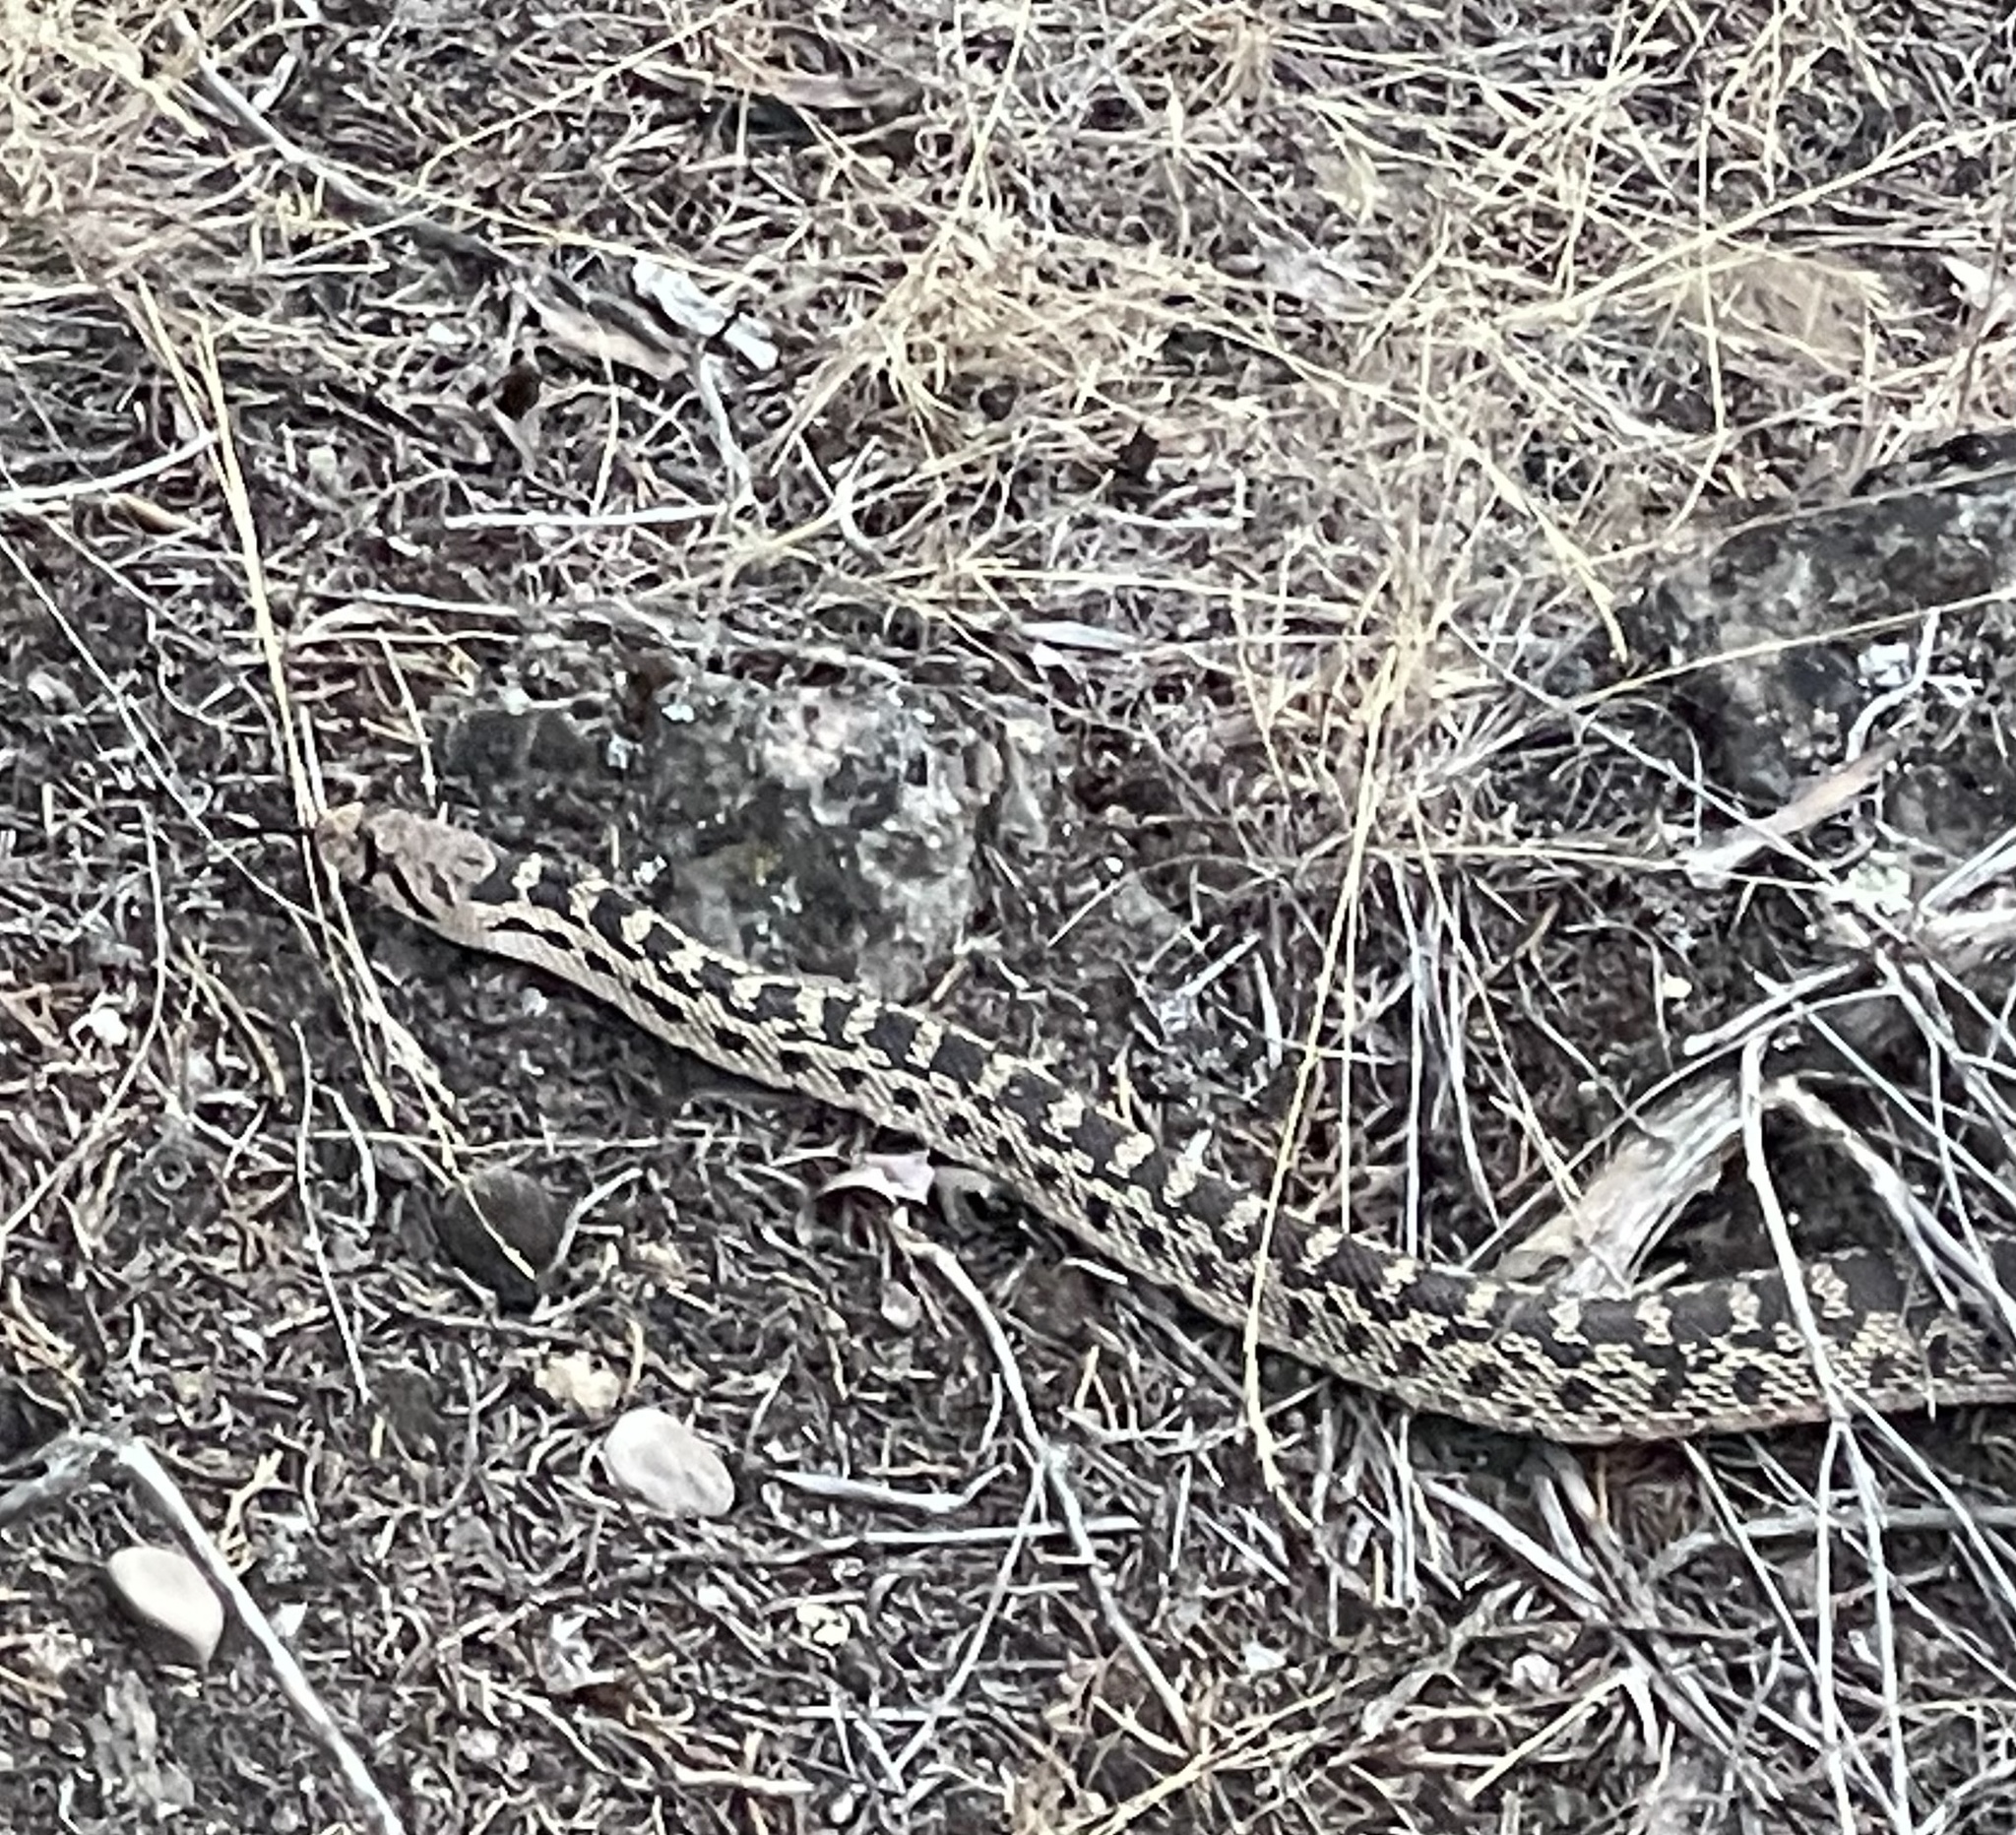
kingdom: Animalia
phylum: Chordata
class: Squamata
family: Colubridae
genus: Pituophis
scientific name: Pituophis catenifer
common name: Gopher snake
